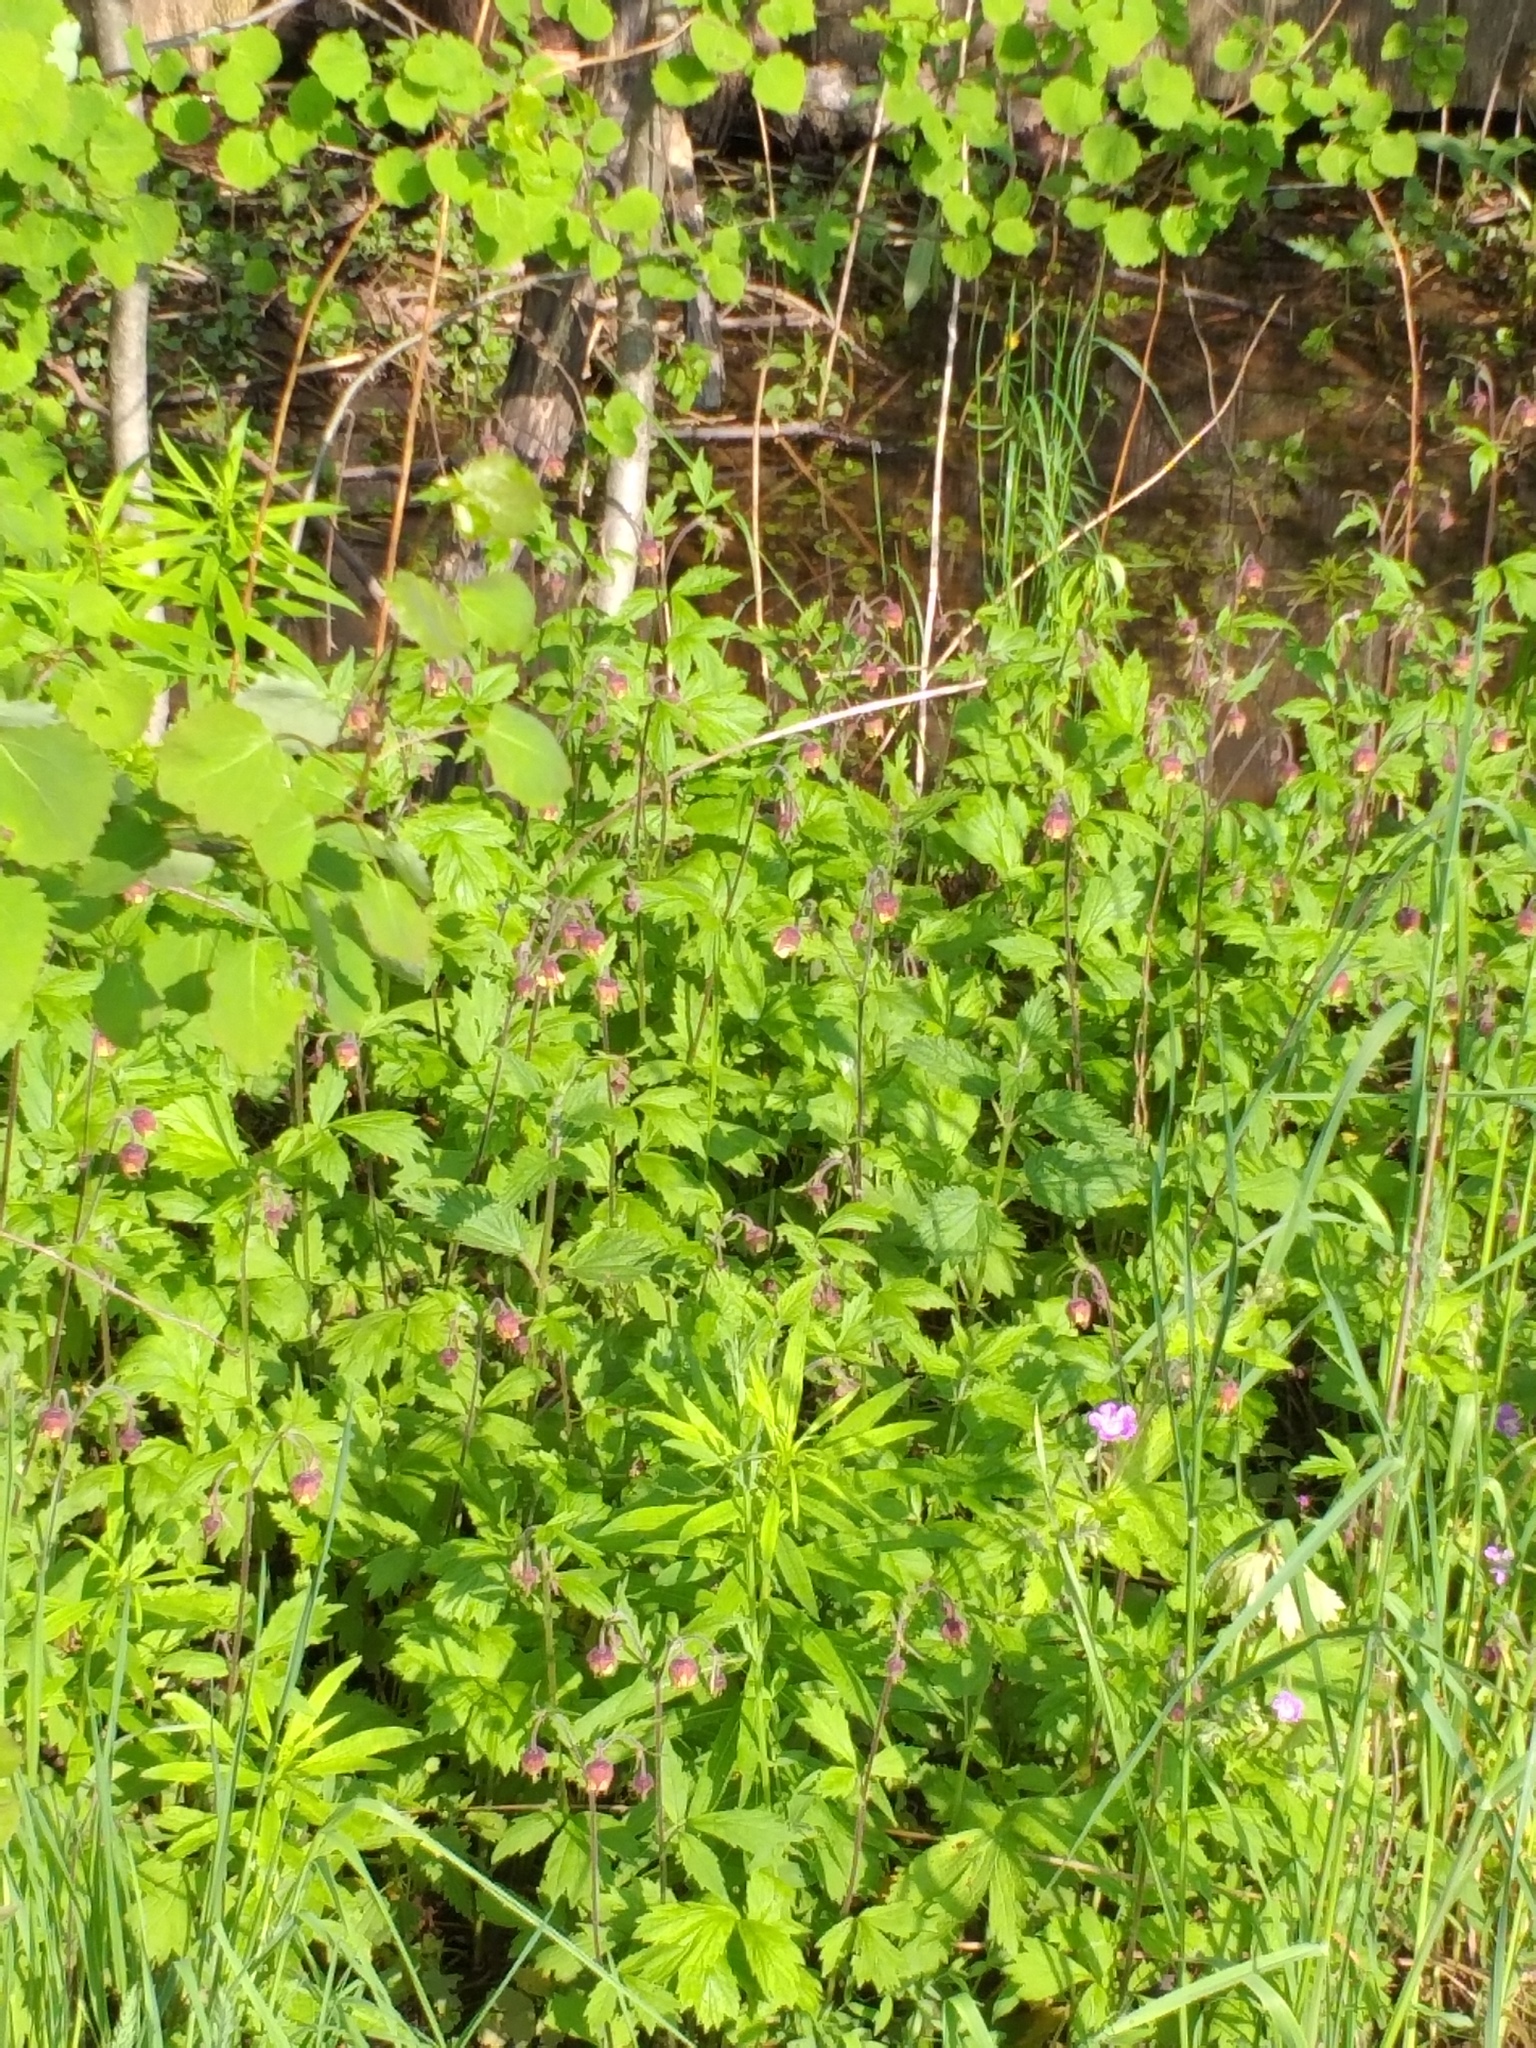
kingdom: Plantae
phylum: Tracheophyta
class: Magnoliopsida
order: Rosales
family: Rosaceae
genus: Geum
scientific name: Geum rivale
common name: Water avens
